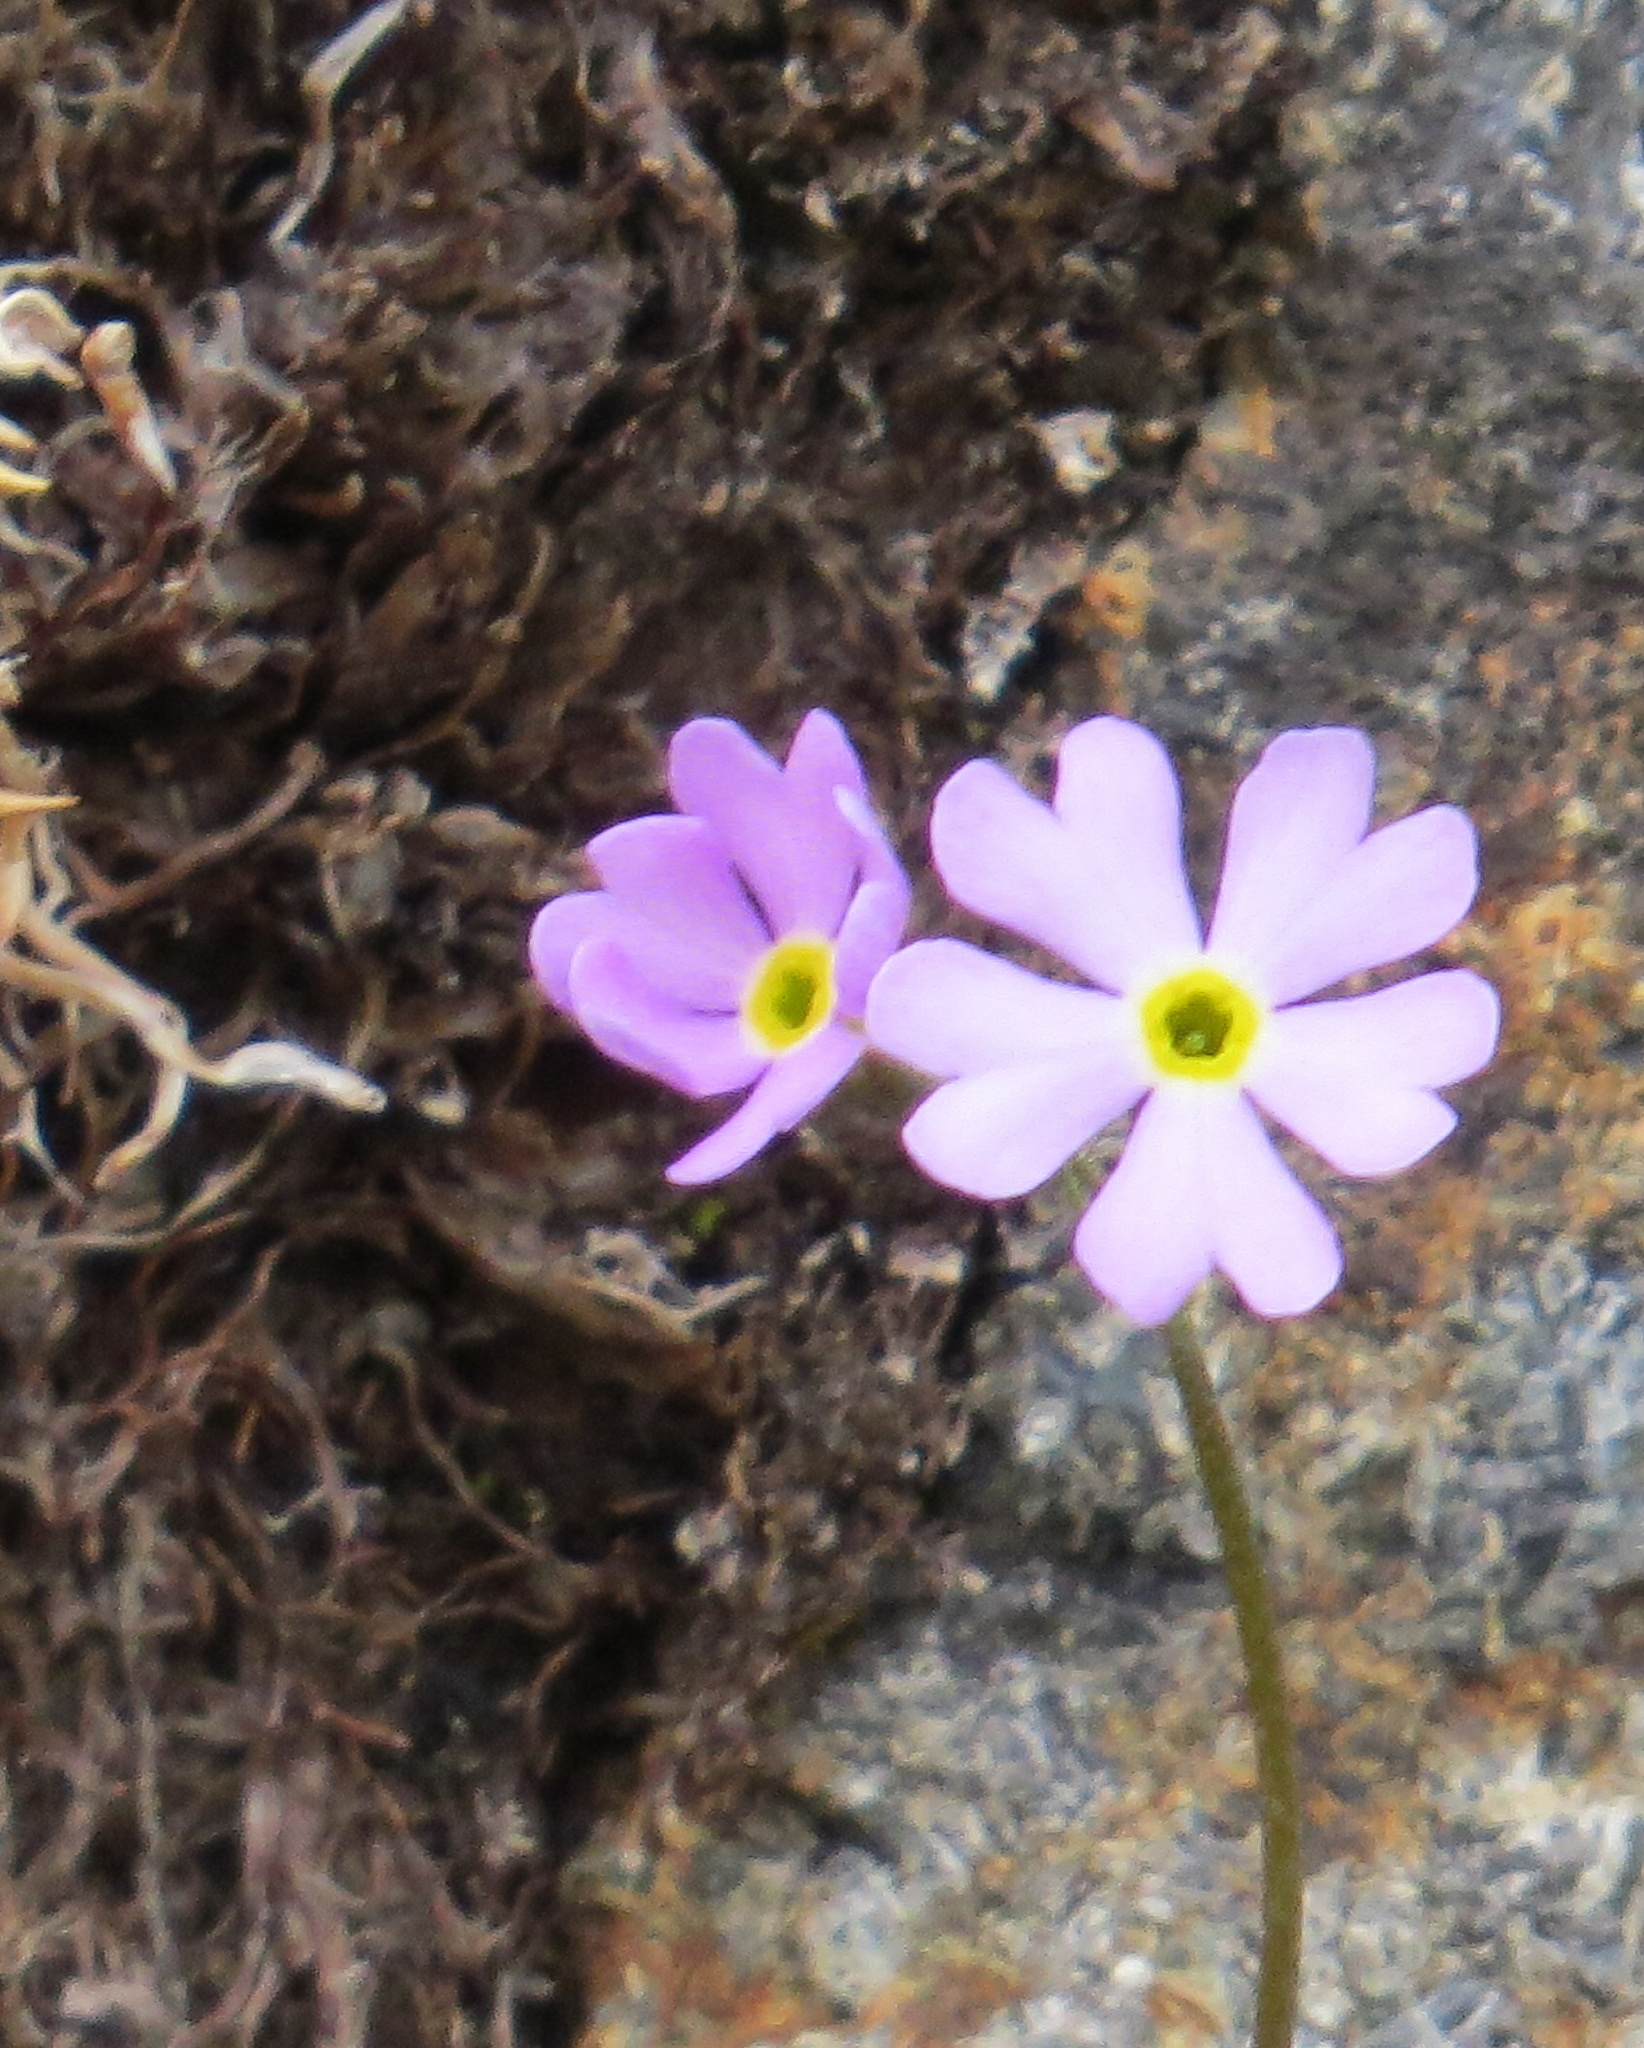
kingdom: Plantae
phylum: Tracheophyta
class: Magnoliopsida
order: Ericales
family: Primulaceae
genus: Primula
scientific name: Primula mistassinica
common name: Bird's-eye primrose
